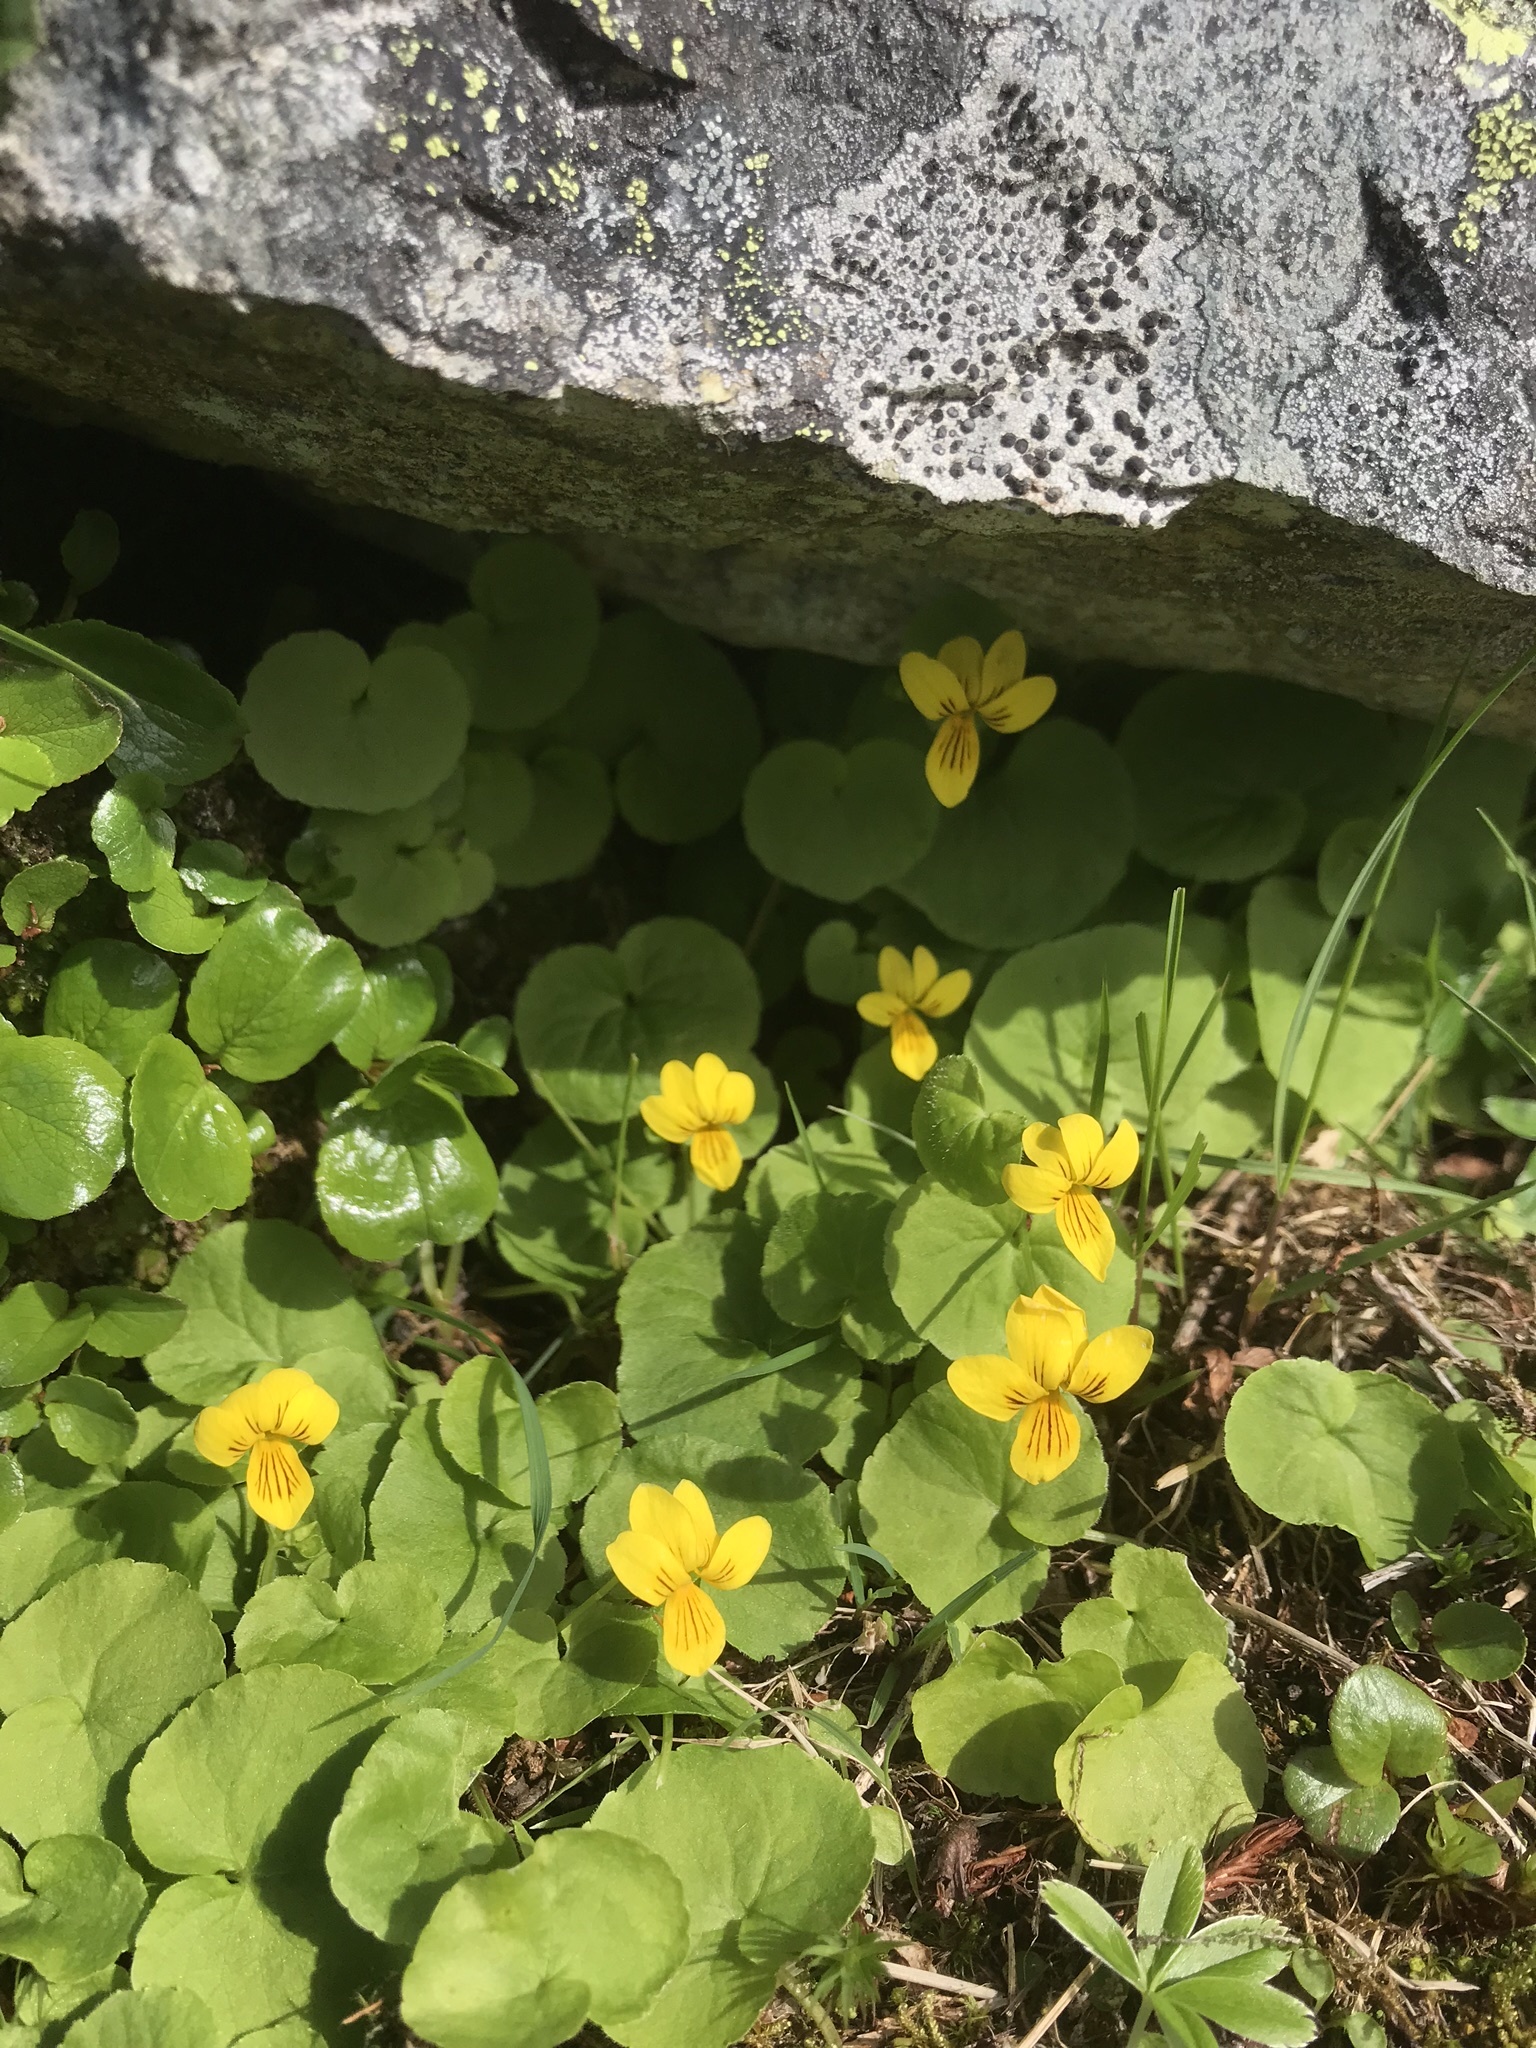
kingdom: Plantae
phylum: Tracheophyta
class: Magnoliopsida
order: Malpighiales
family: Violaceae
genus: Viola
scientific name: Viola biflora
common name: Alpine yellow violet
